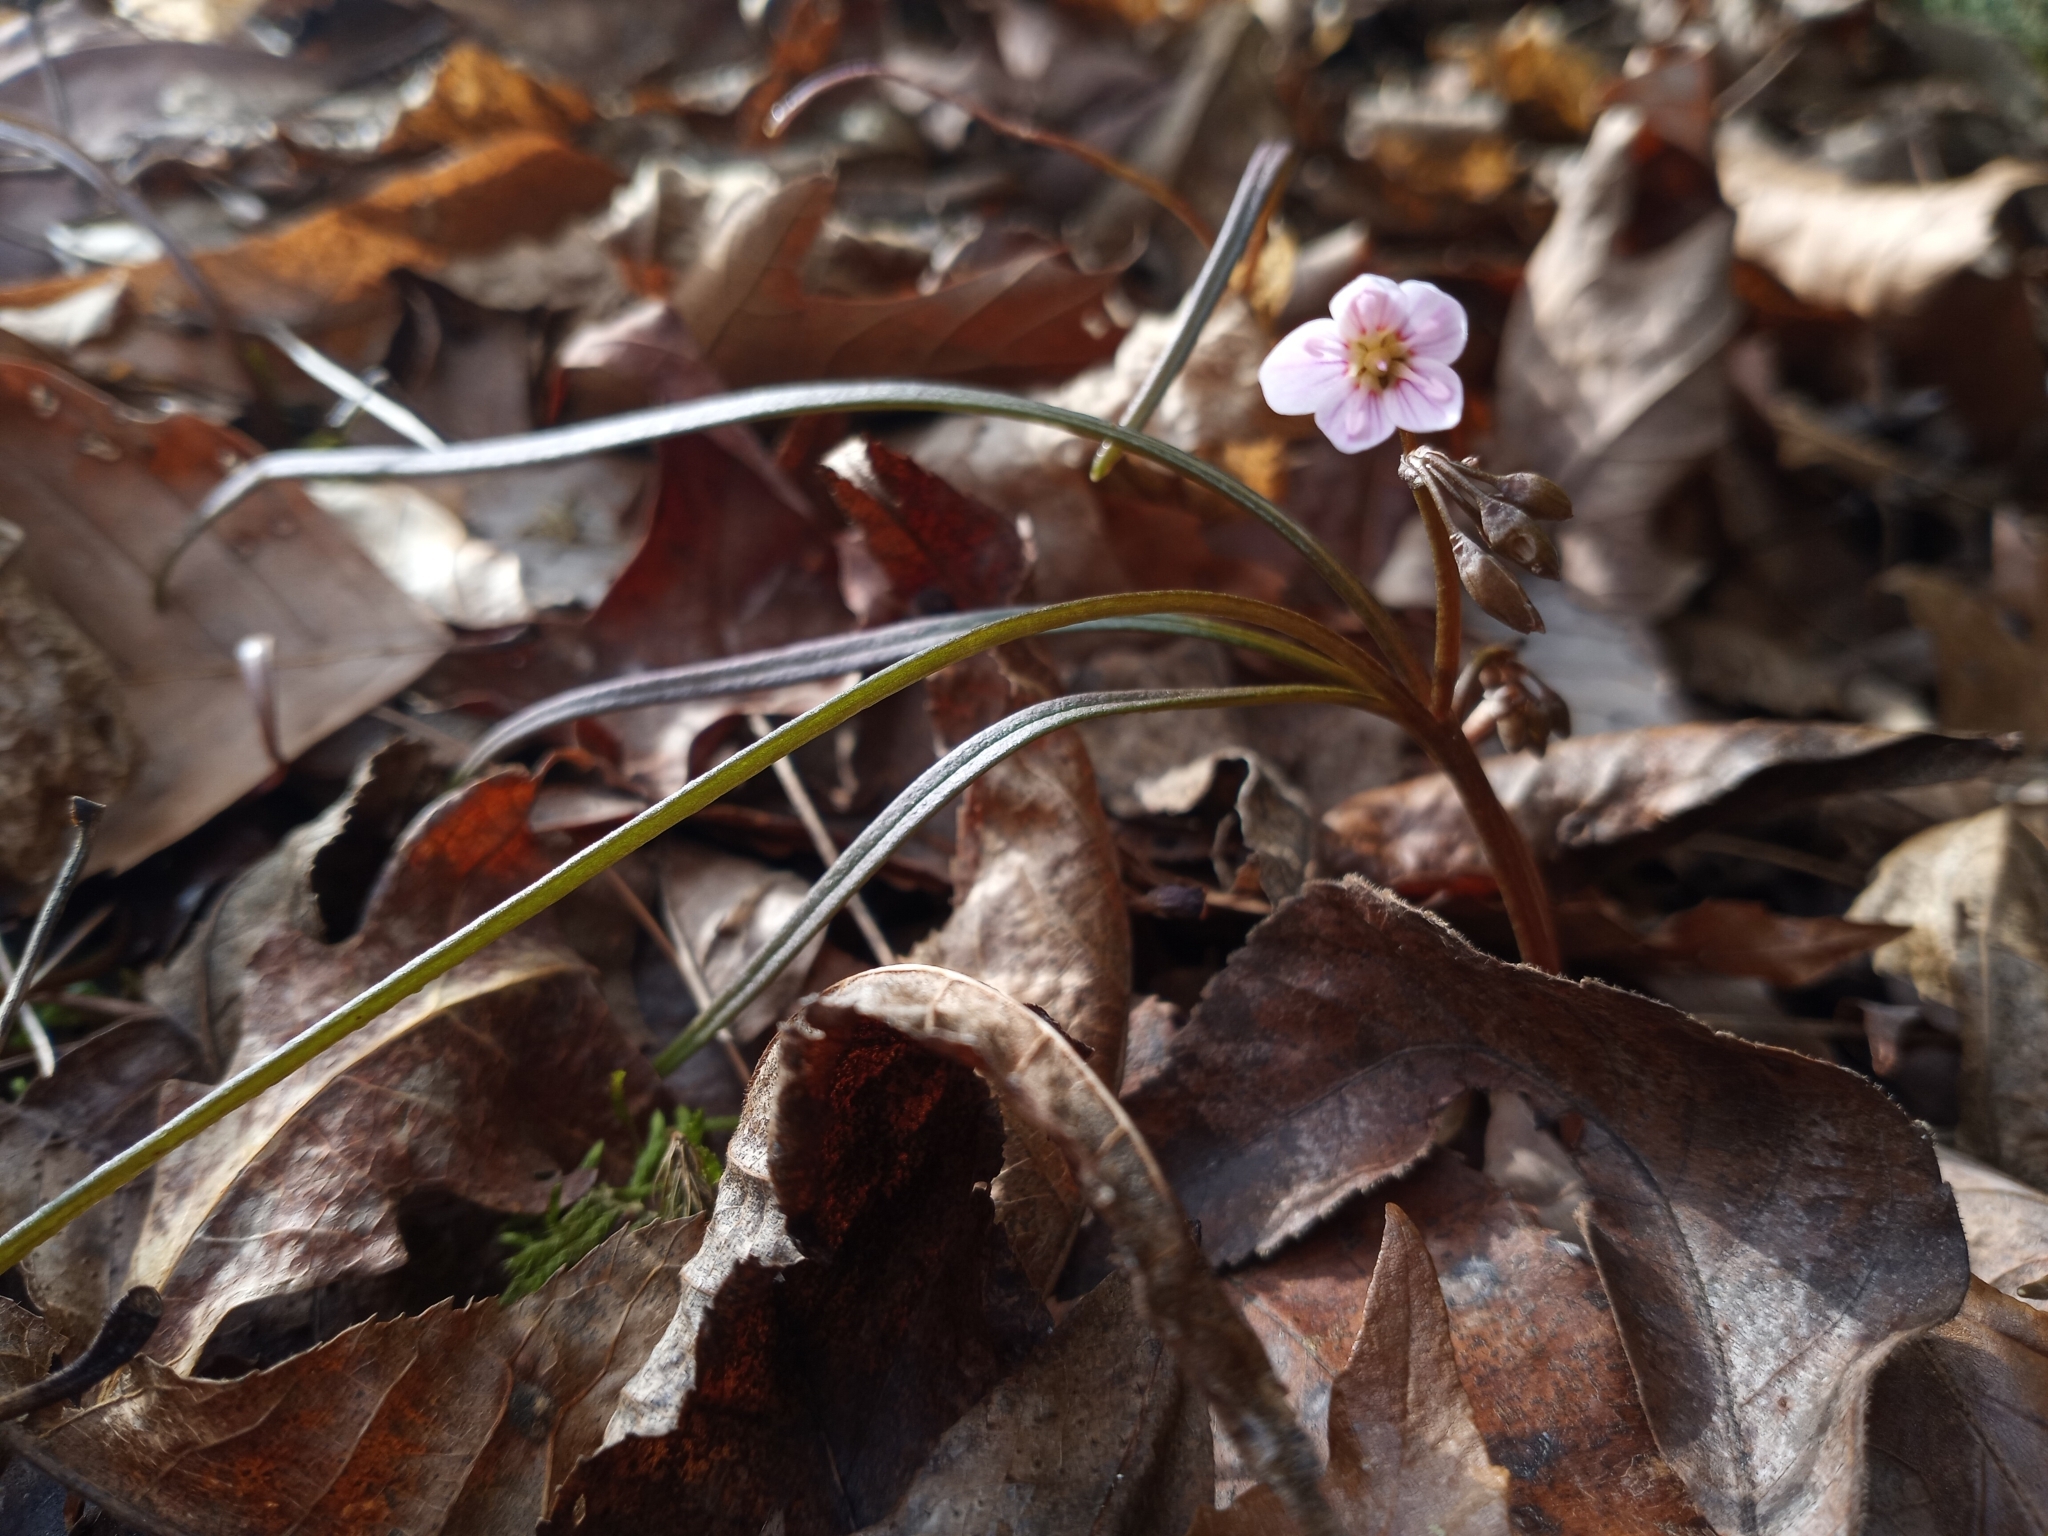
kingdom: Plantae
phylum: Tracheophyta
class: Magnoliopsida
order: Caryophyllales
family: Montiaceae
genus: Claytonia
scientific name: Claytonia virginica
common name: Virginia springbeauty
